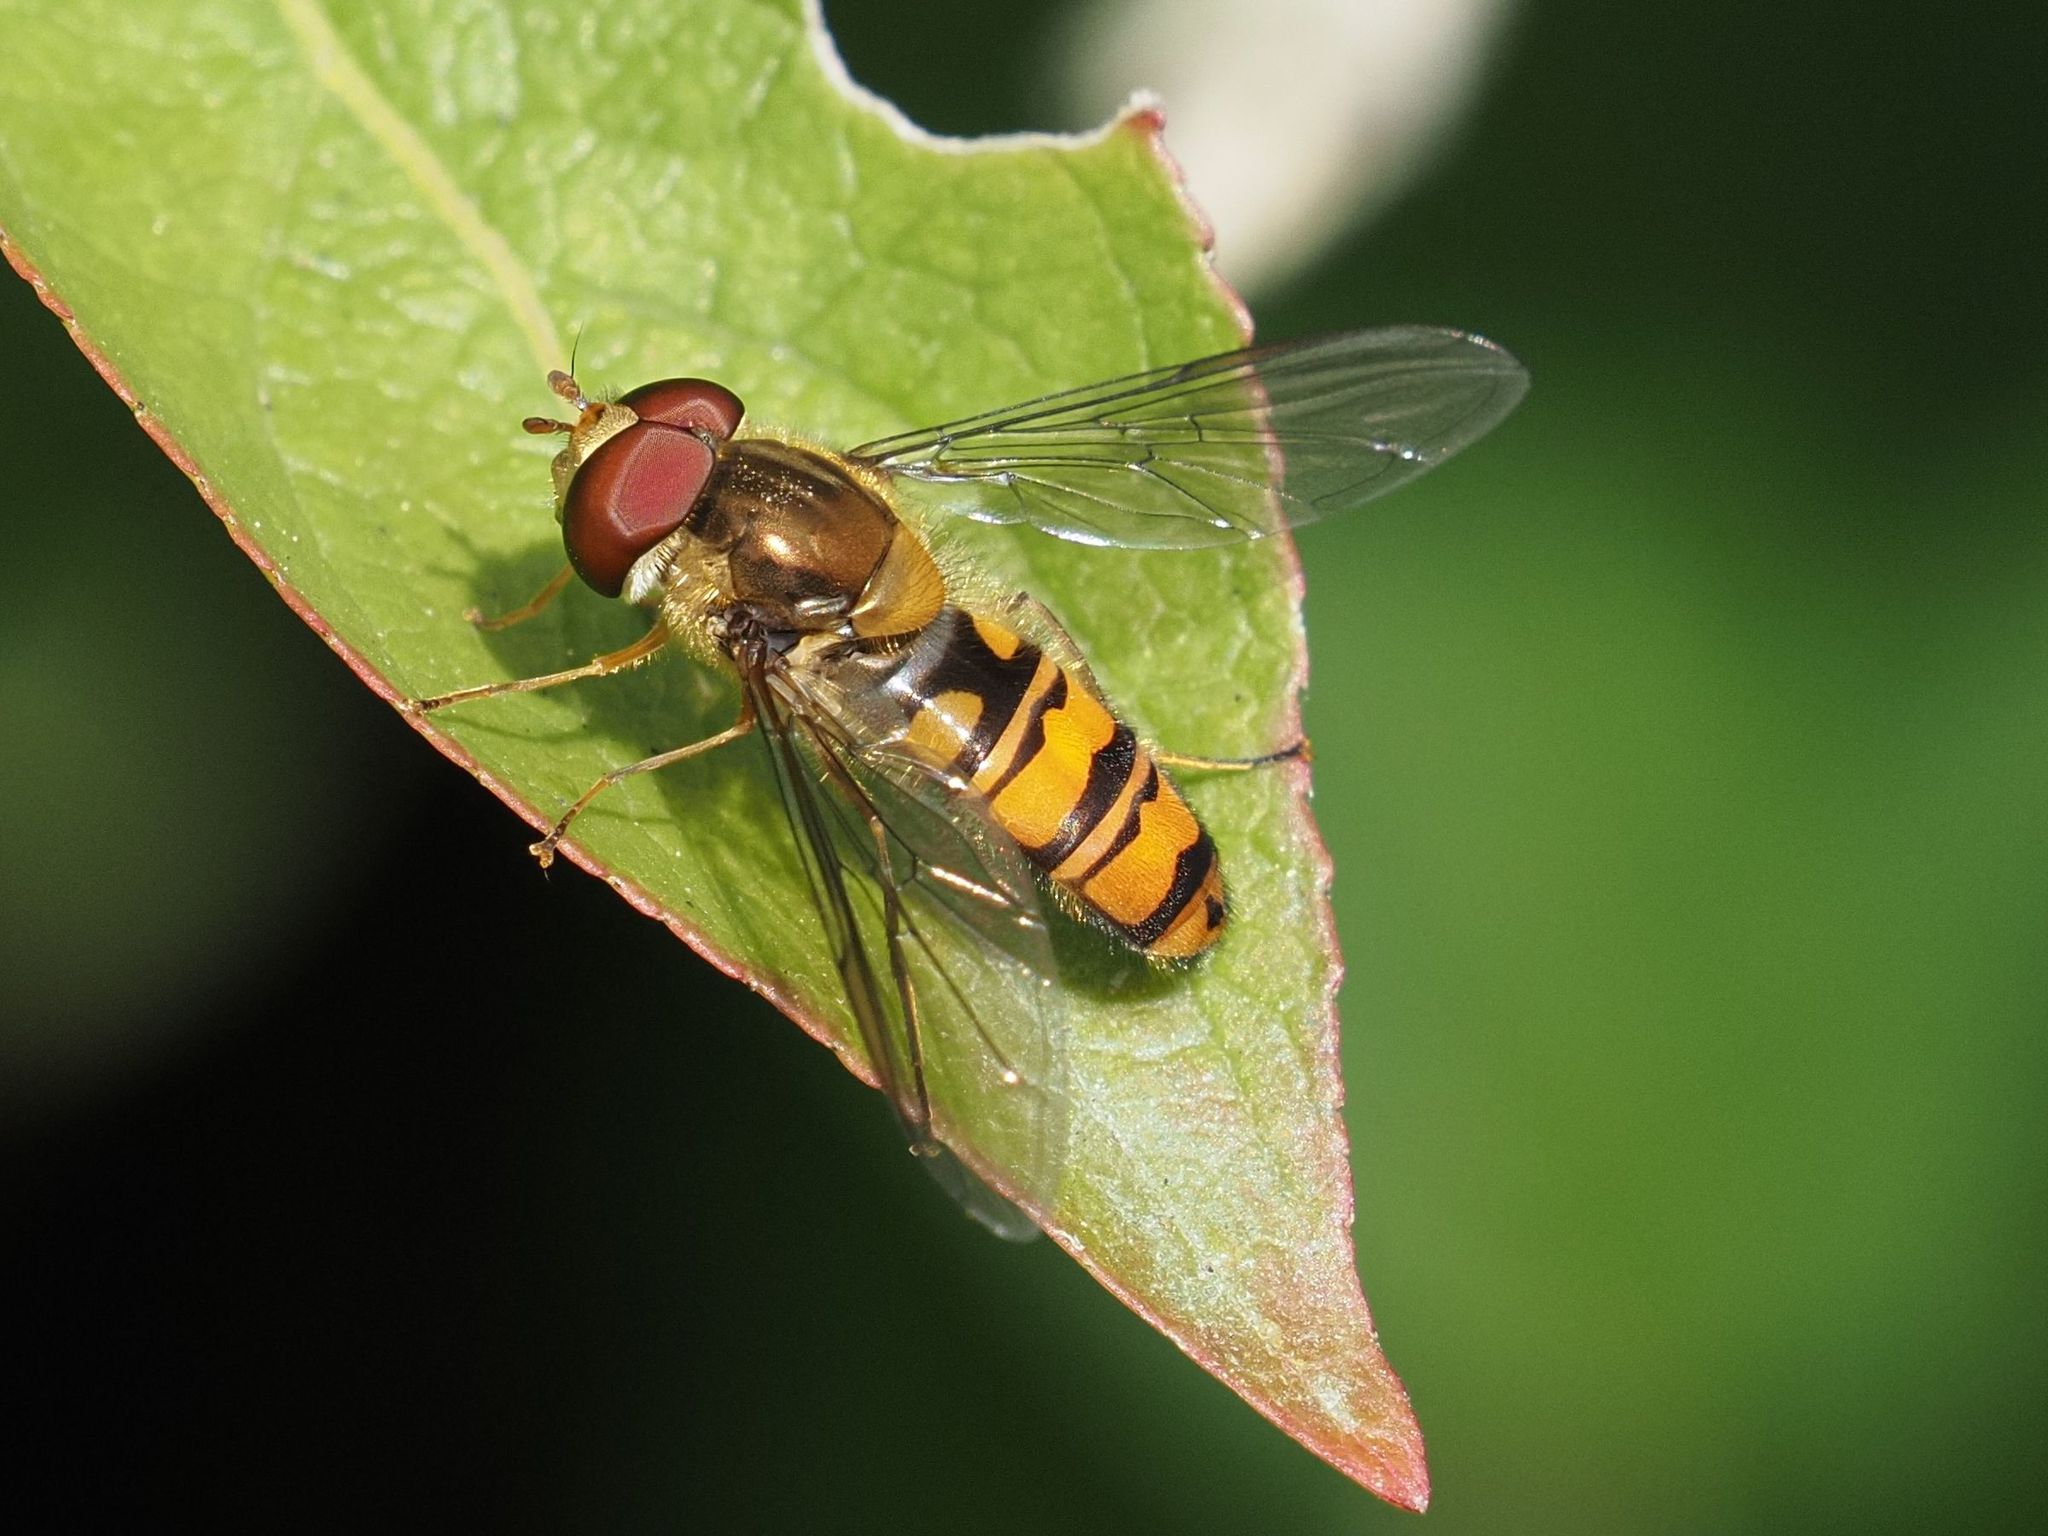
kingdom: Animalia
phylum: Arthropoda
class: Insecta
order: Diptera
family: Syrphidae
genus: Episyrphus
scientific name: Episyrphus balteatus
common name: Marmalade hoverfly
